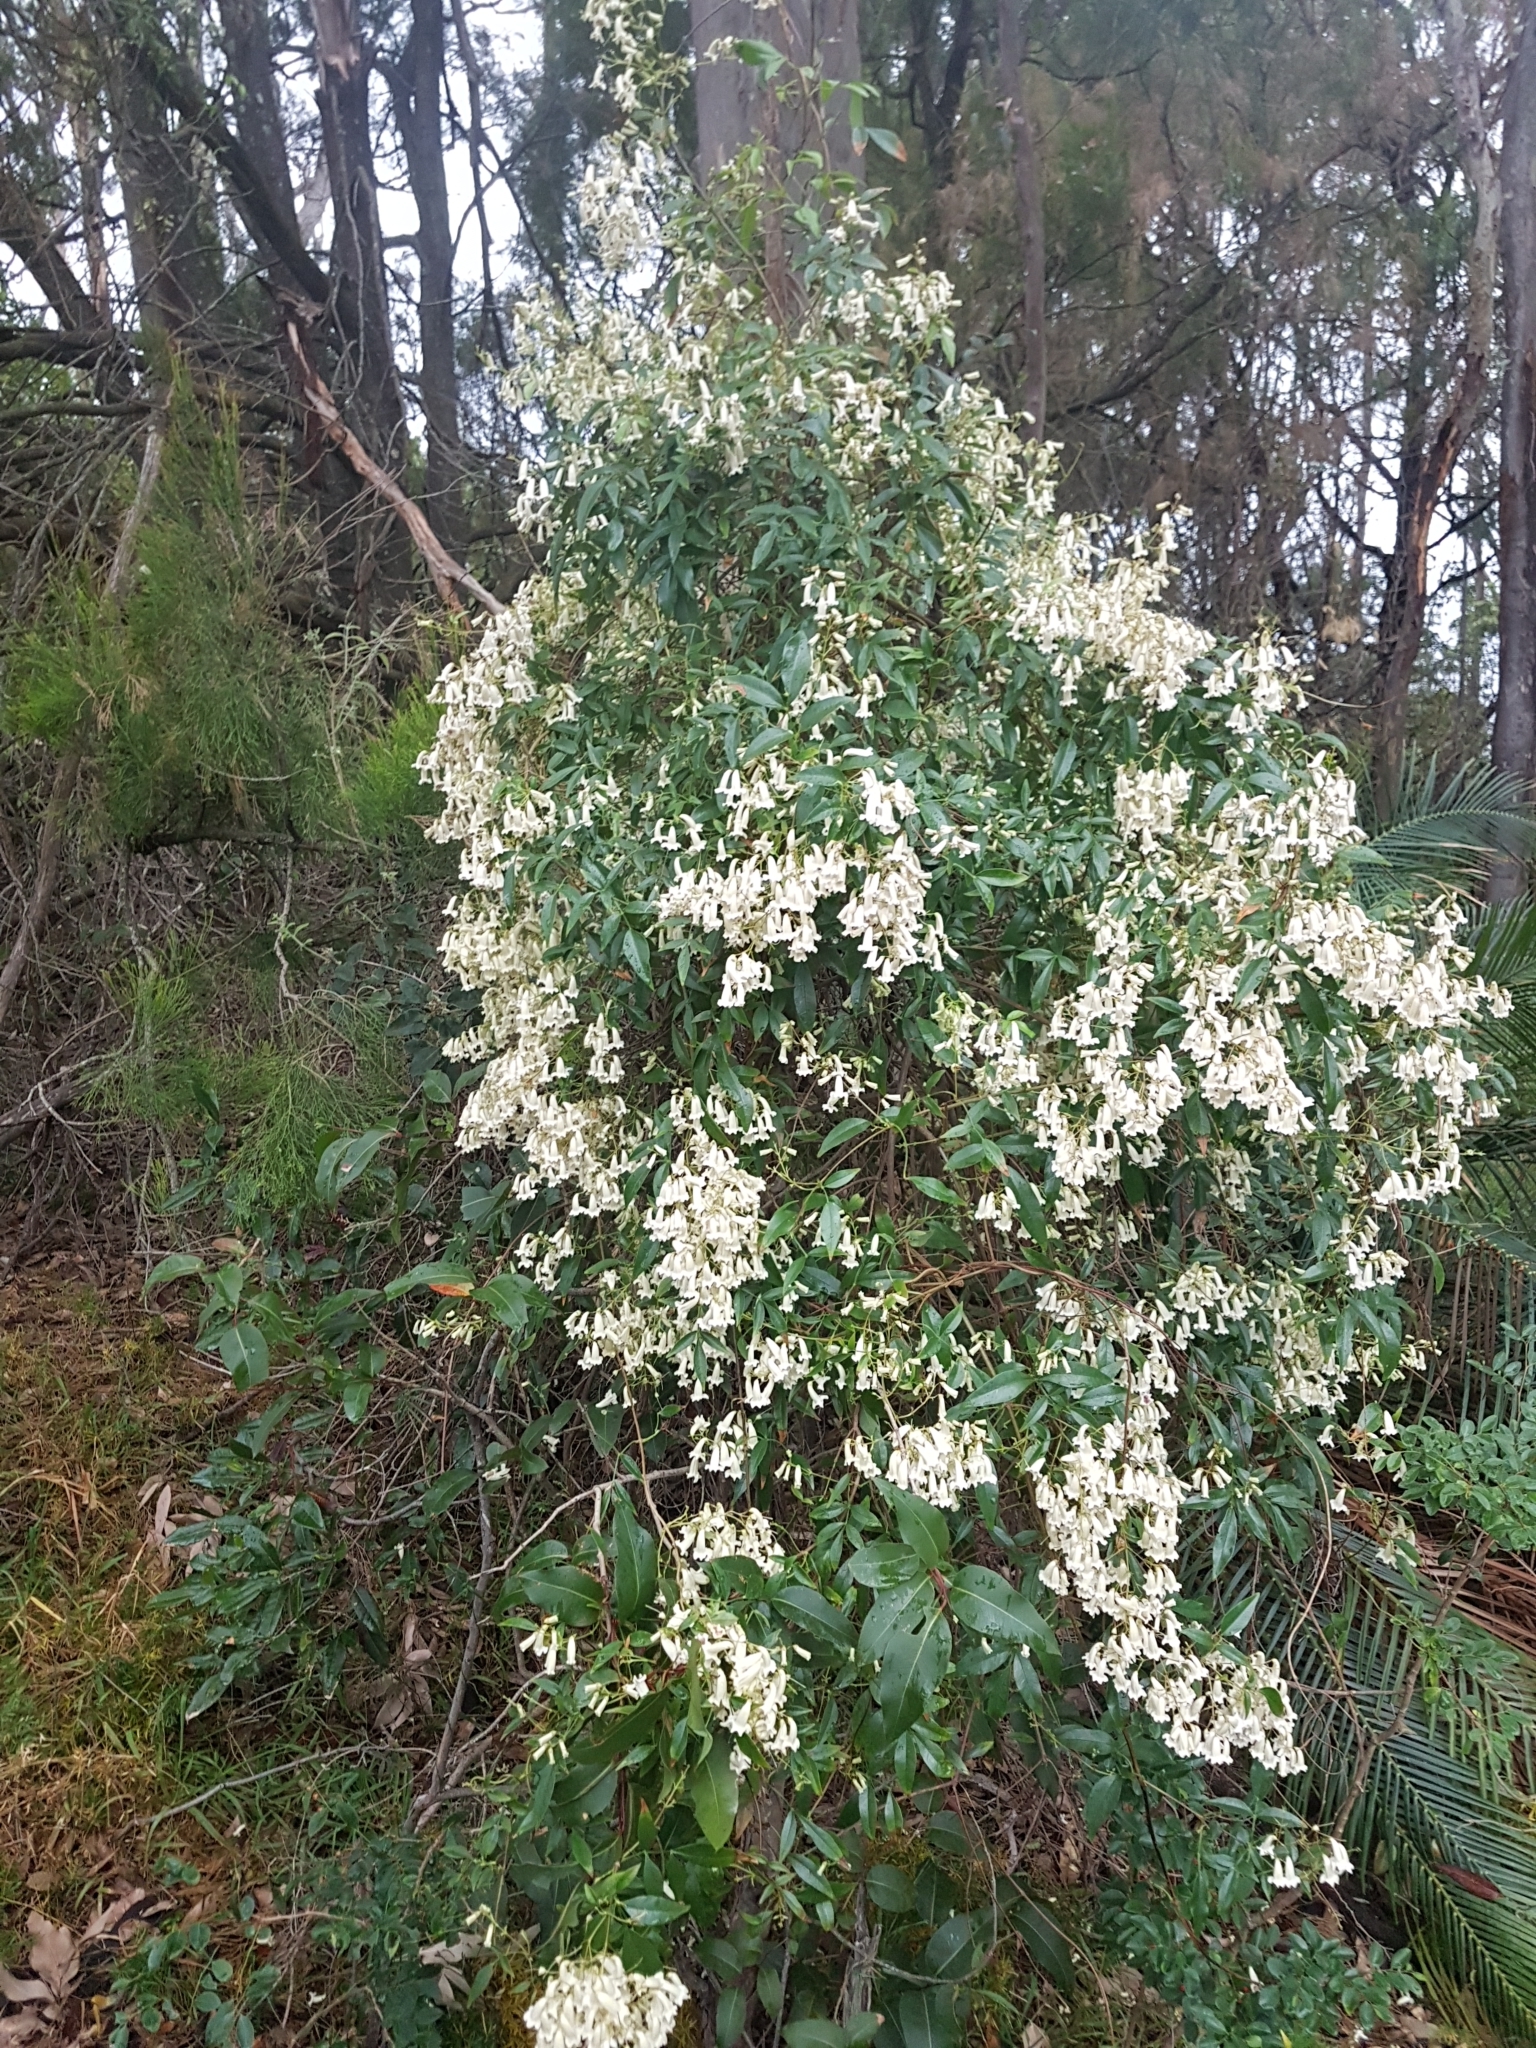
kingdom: Plantae
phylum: Tracheophyta
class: Magnoliopsida
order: Lamiales
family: Bignoniaceae
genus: Pandorea
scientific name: Pandorea pandorana
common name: Wonga-wonga-vine
